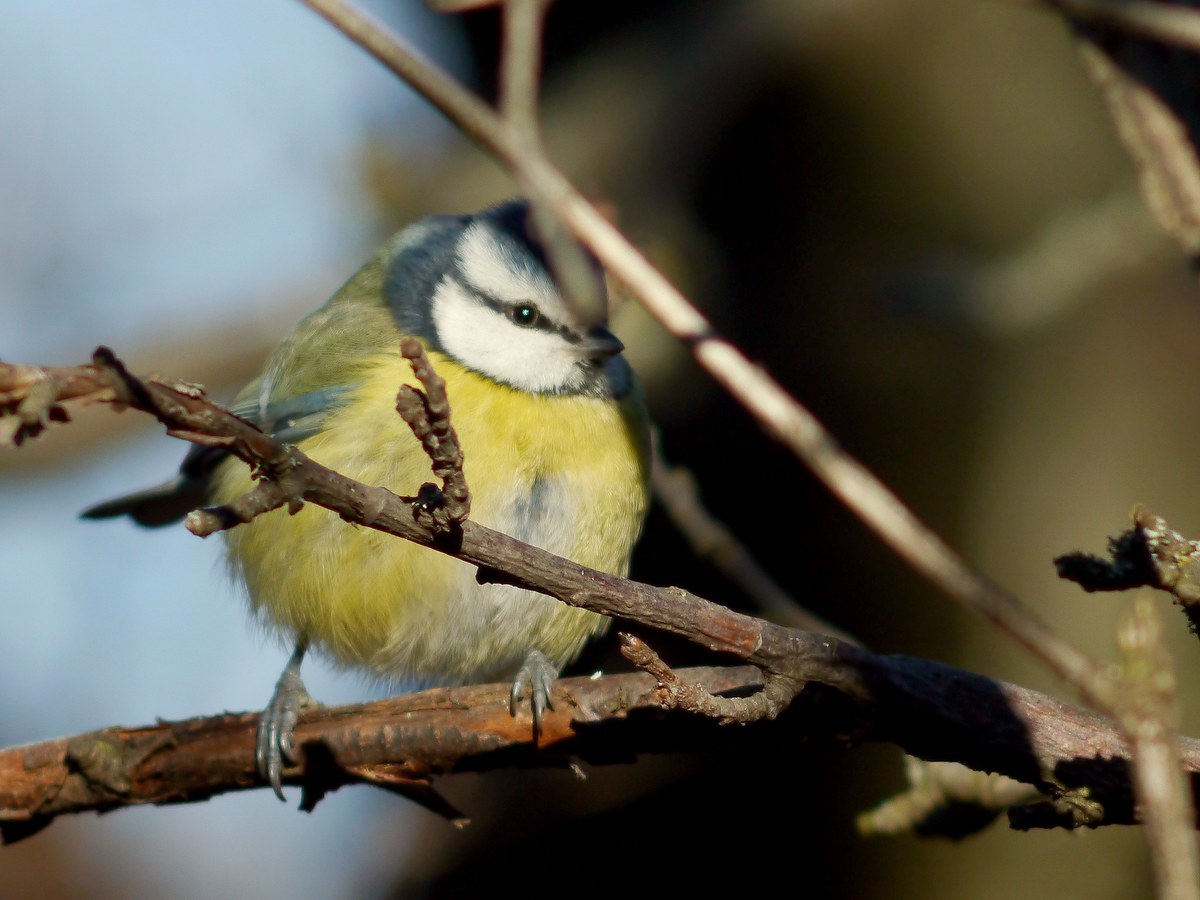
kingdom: Animalia
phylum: Chordata
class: Aves
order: Passeriformes
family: Paridae
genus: Cyanistes
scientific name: Cyanistes caeruleus
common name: Eurasian blue tit
